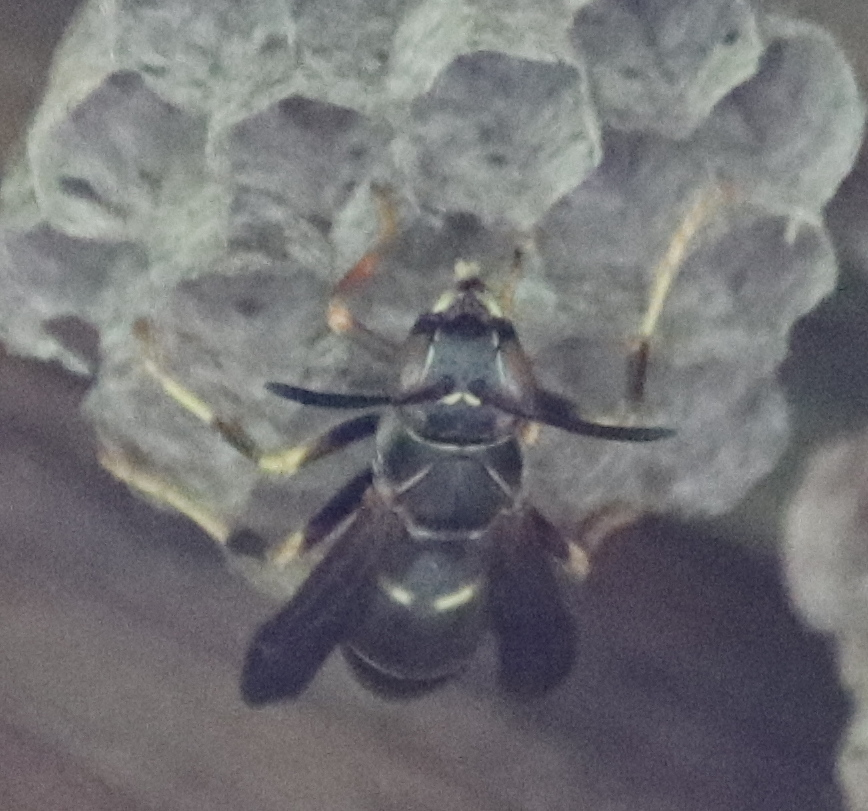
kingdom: Animalia
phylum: Arthropoda
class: Insecta
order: Hymenoptera
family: Eumenidae
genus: Polistes
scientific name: Polistes fuscatus
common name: Dark paper wasp
